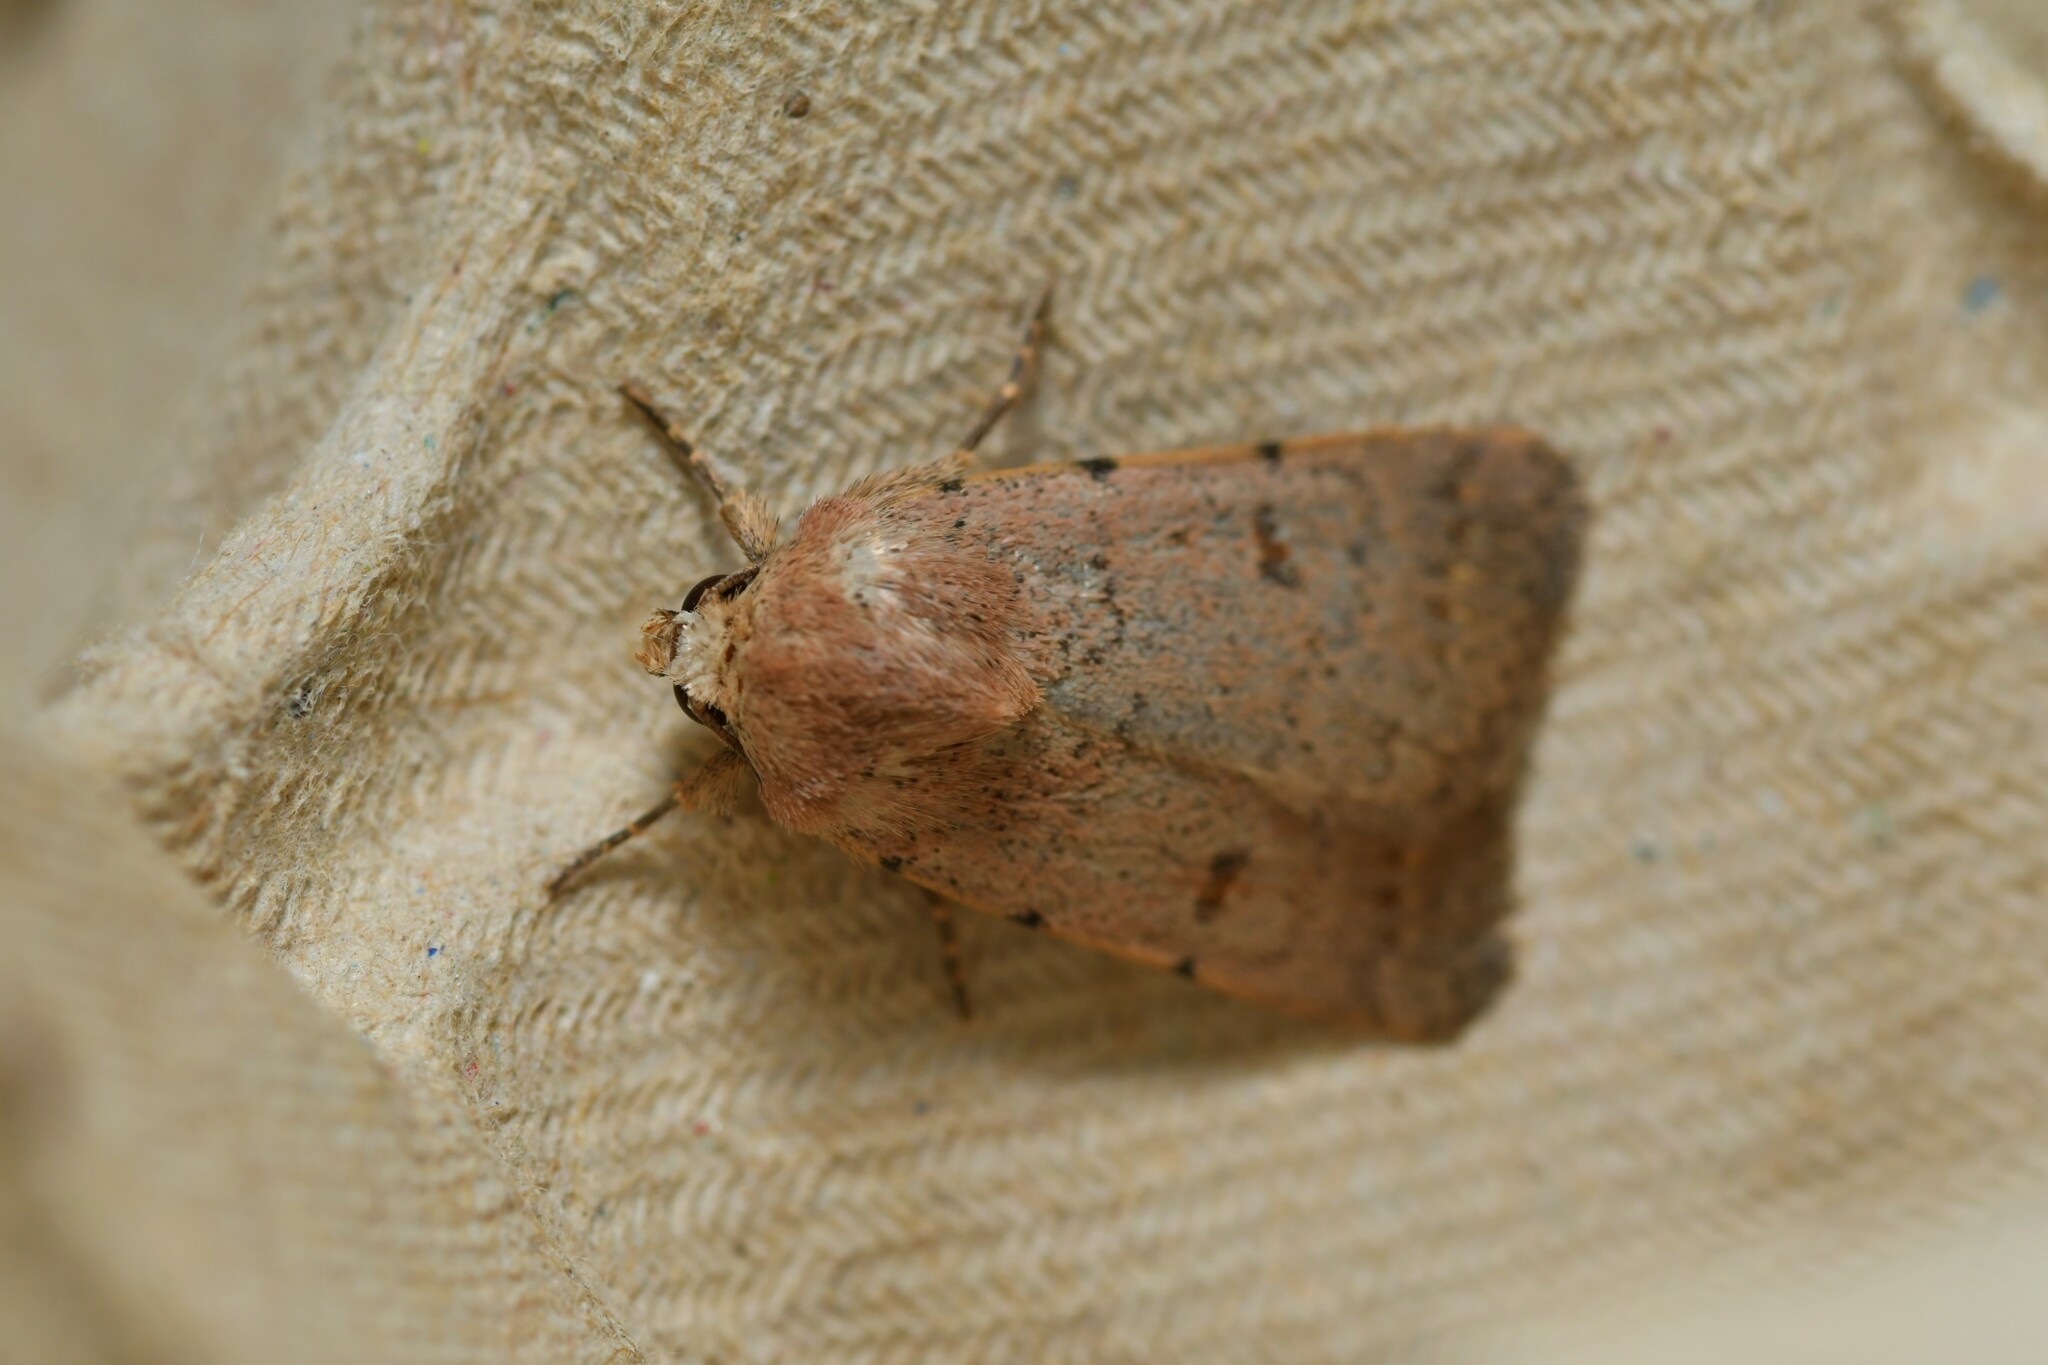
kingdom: Animalia
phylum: Arthropoda
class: Insecta
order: Lepidoptera
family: Noctuidae
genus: Caradrina
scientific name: Caradrina aspersa
